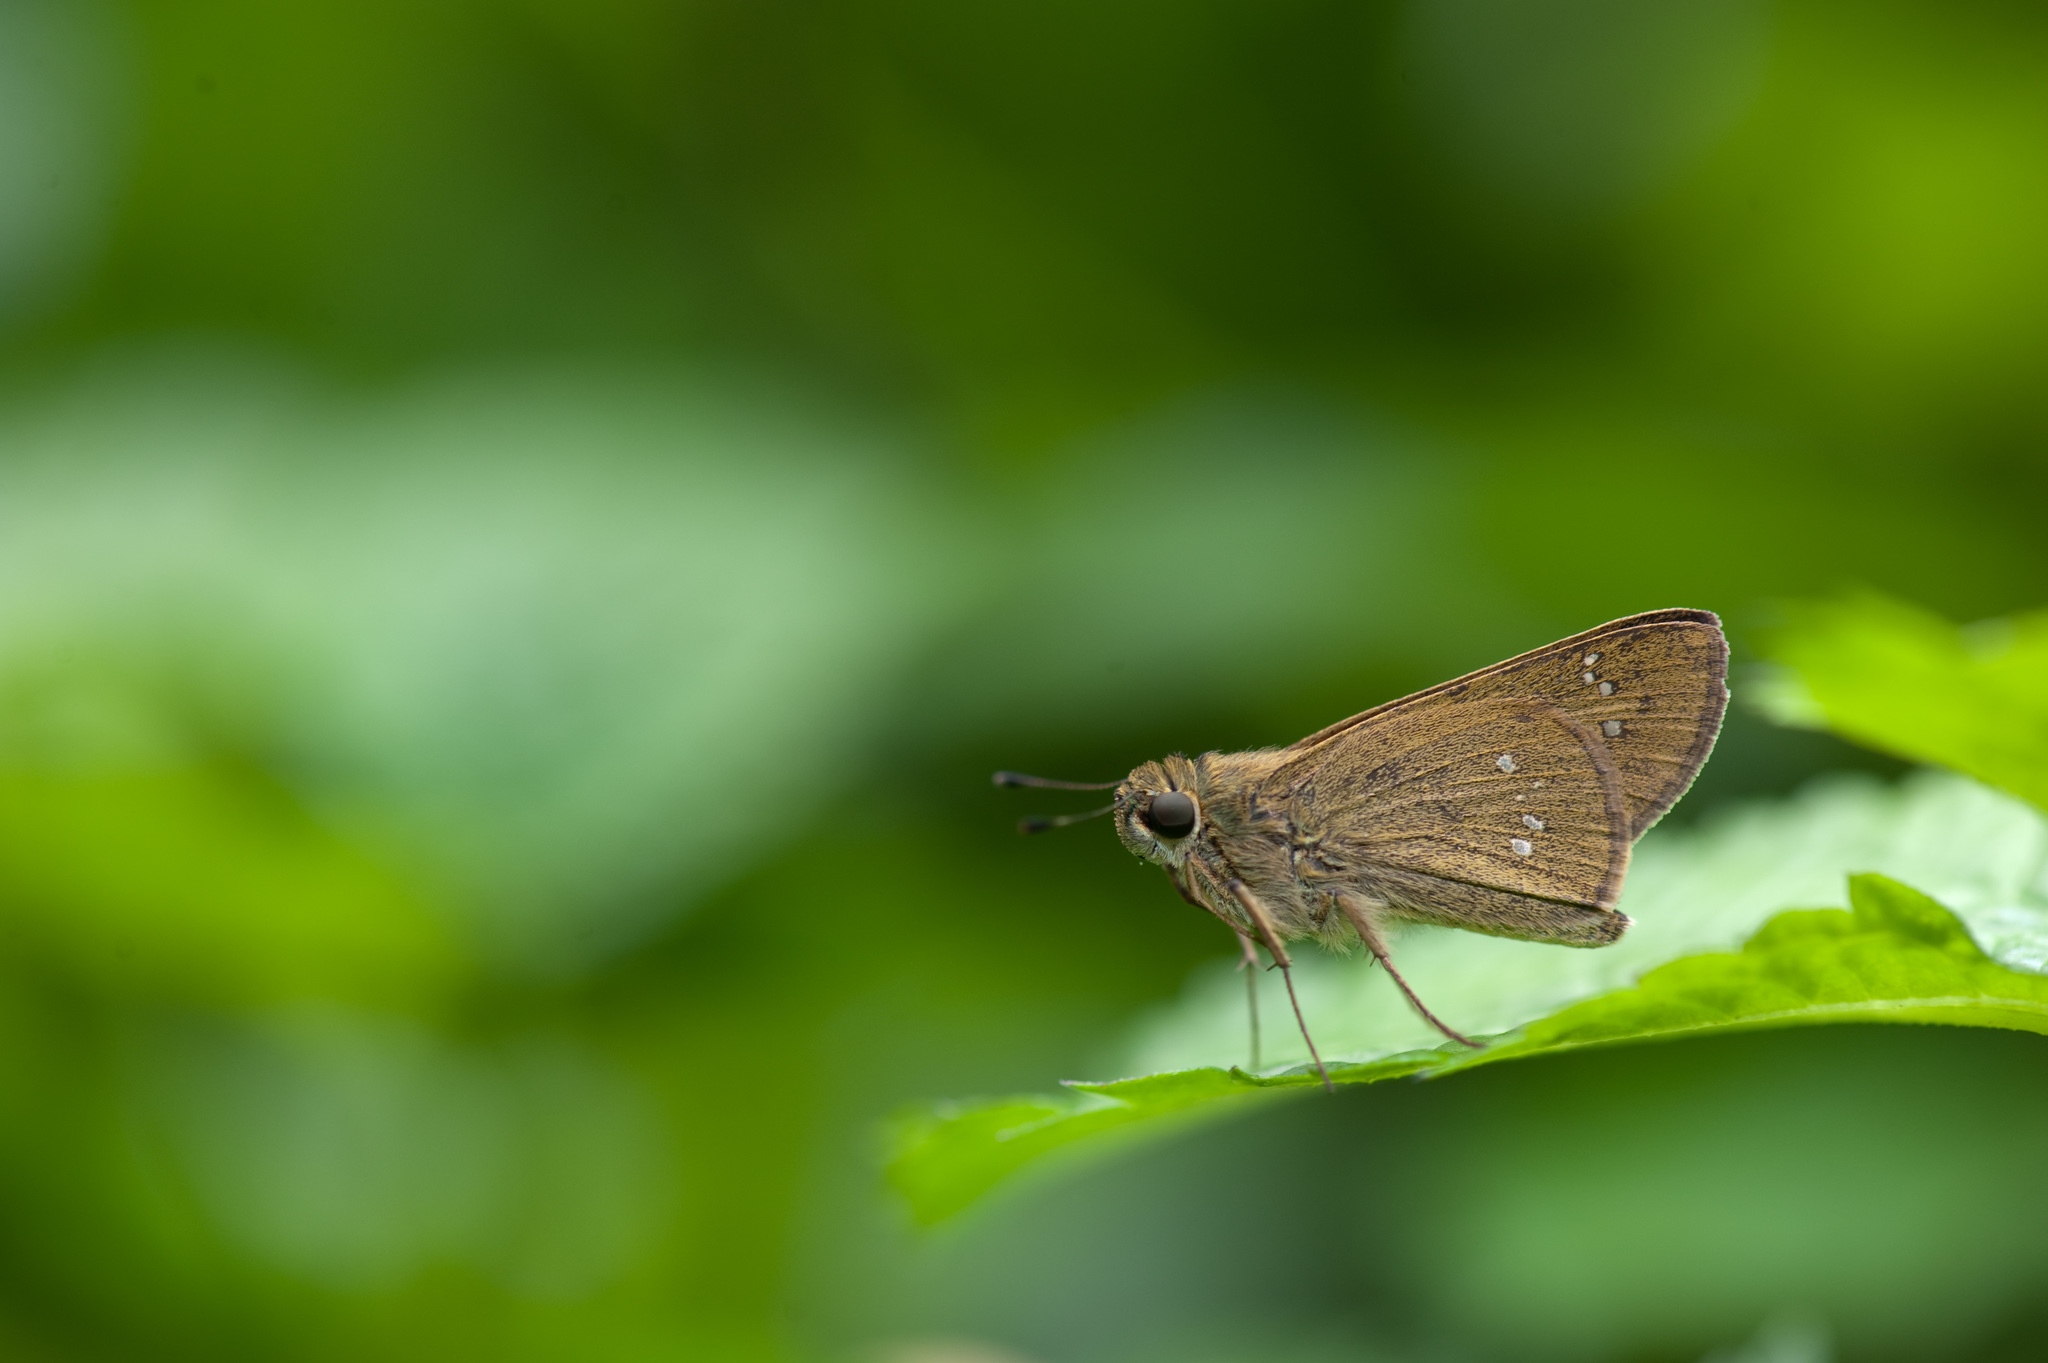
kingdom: Animalia
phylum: Arthropoda
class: Insecta
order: Lepidoptera
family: Hesperiidae
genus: Borbo
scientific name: Borbo cinnara
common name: Formosan swift
